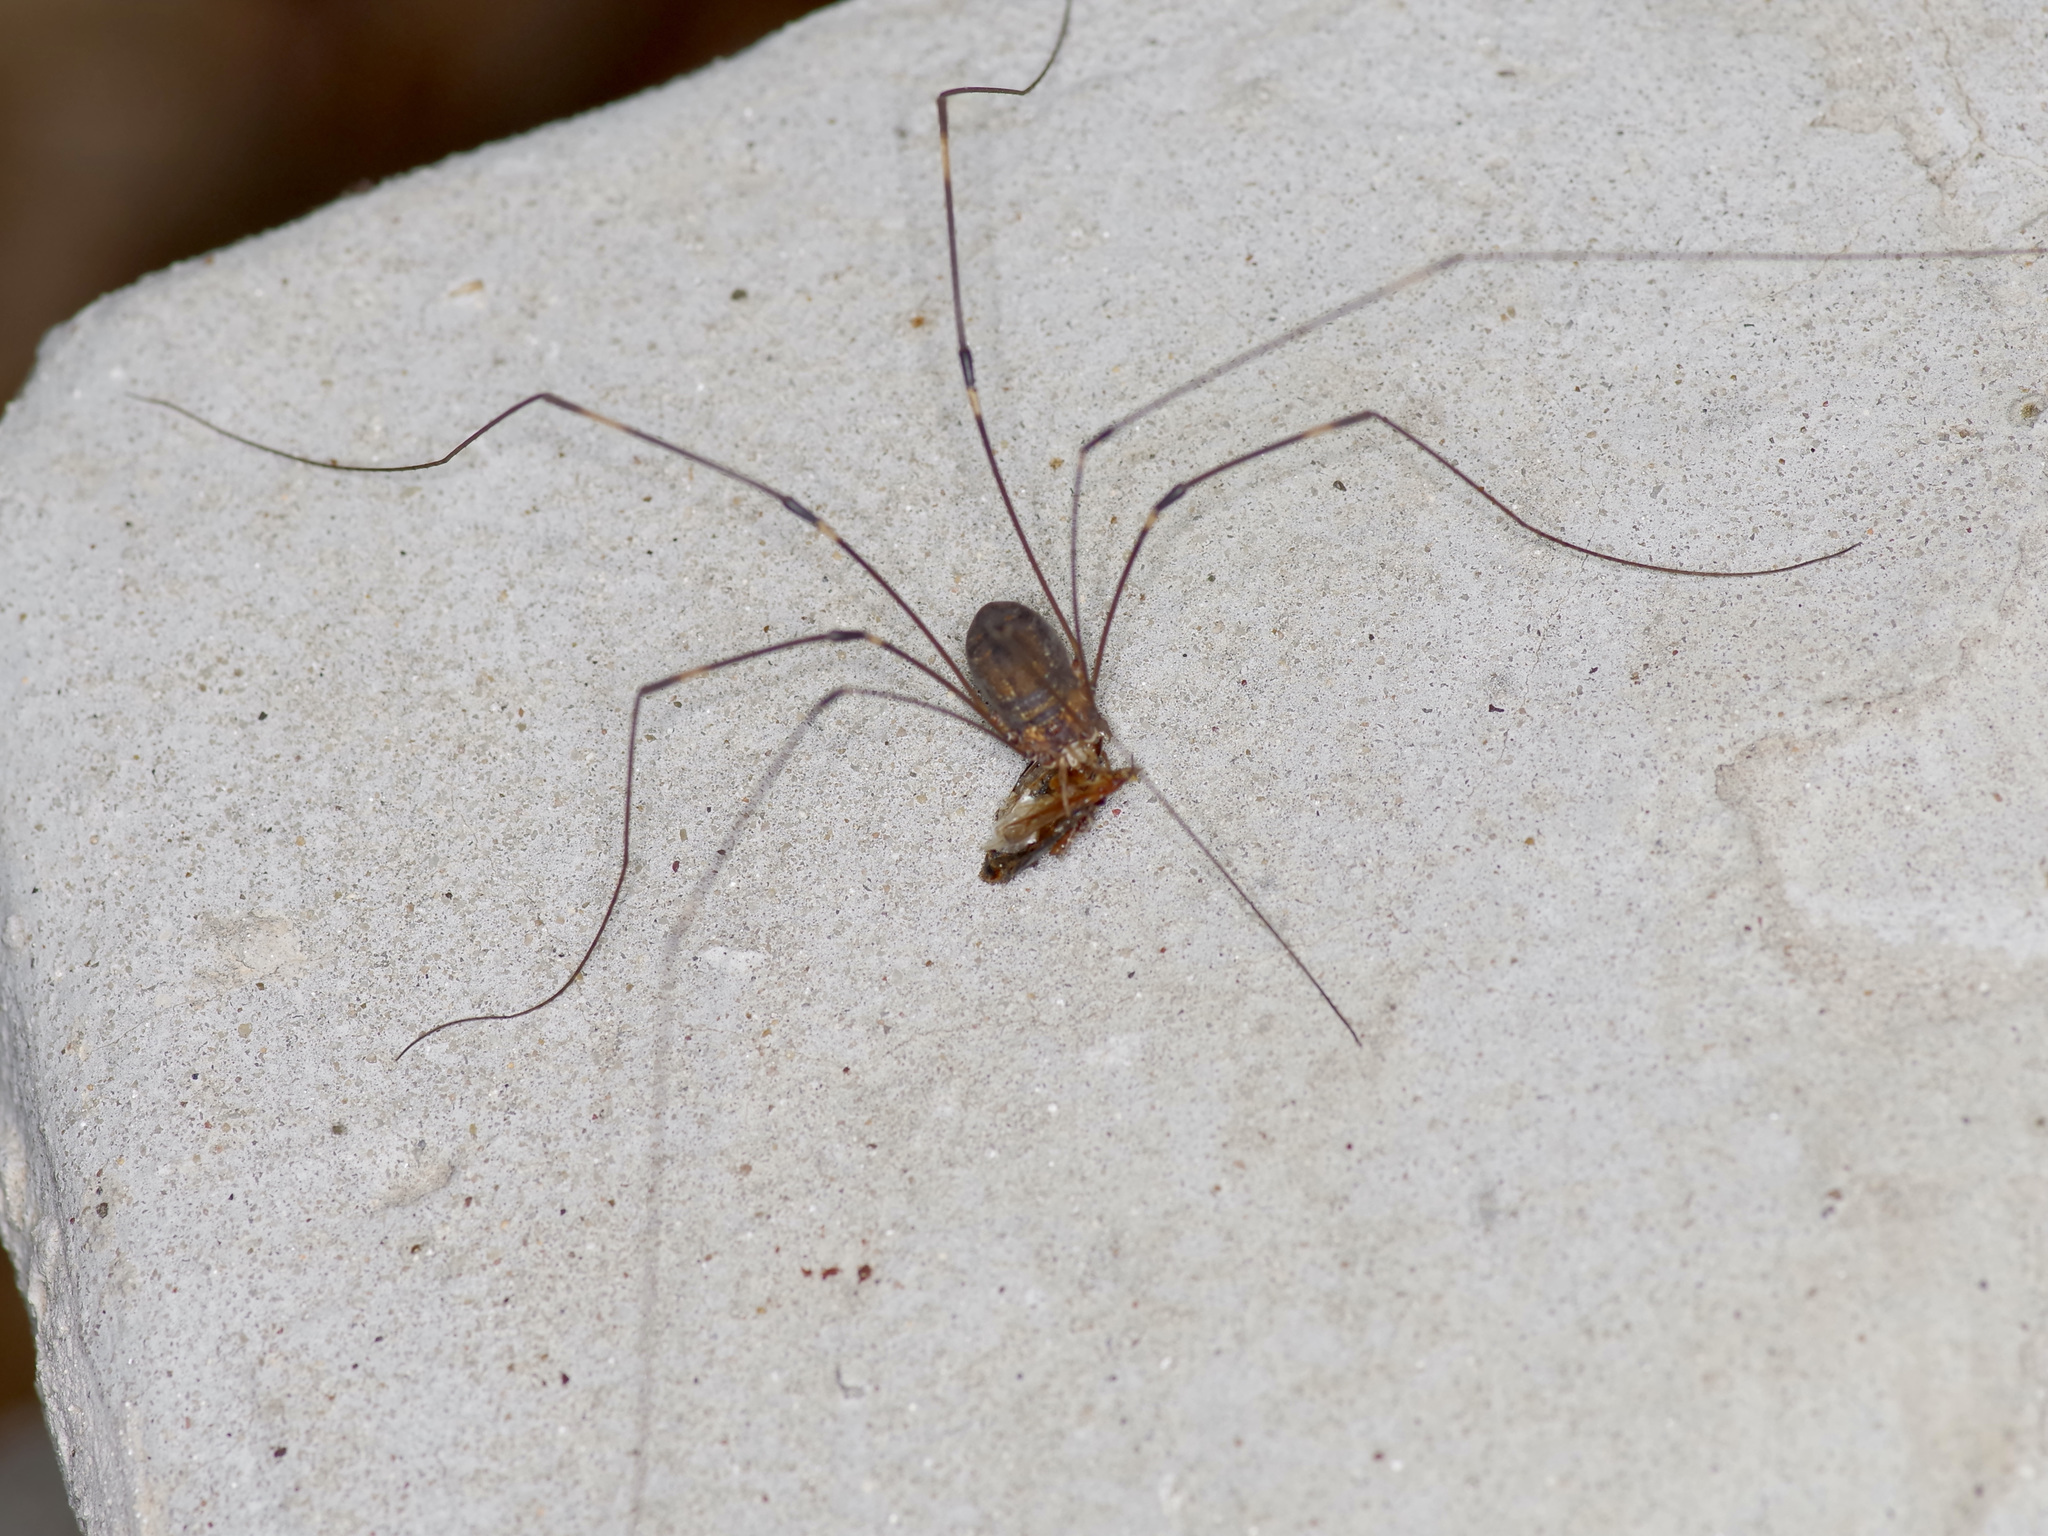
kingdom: Animalia
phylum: Arthropoda
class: Arachnida
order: Opiliones
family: Sclerosomatidae
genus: Leiobunum
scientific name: Leiobunum townsendi
